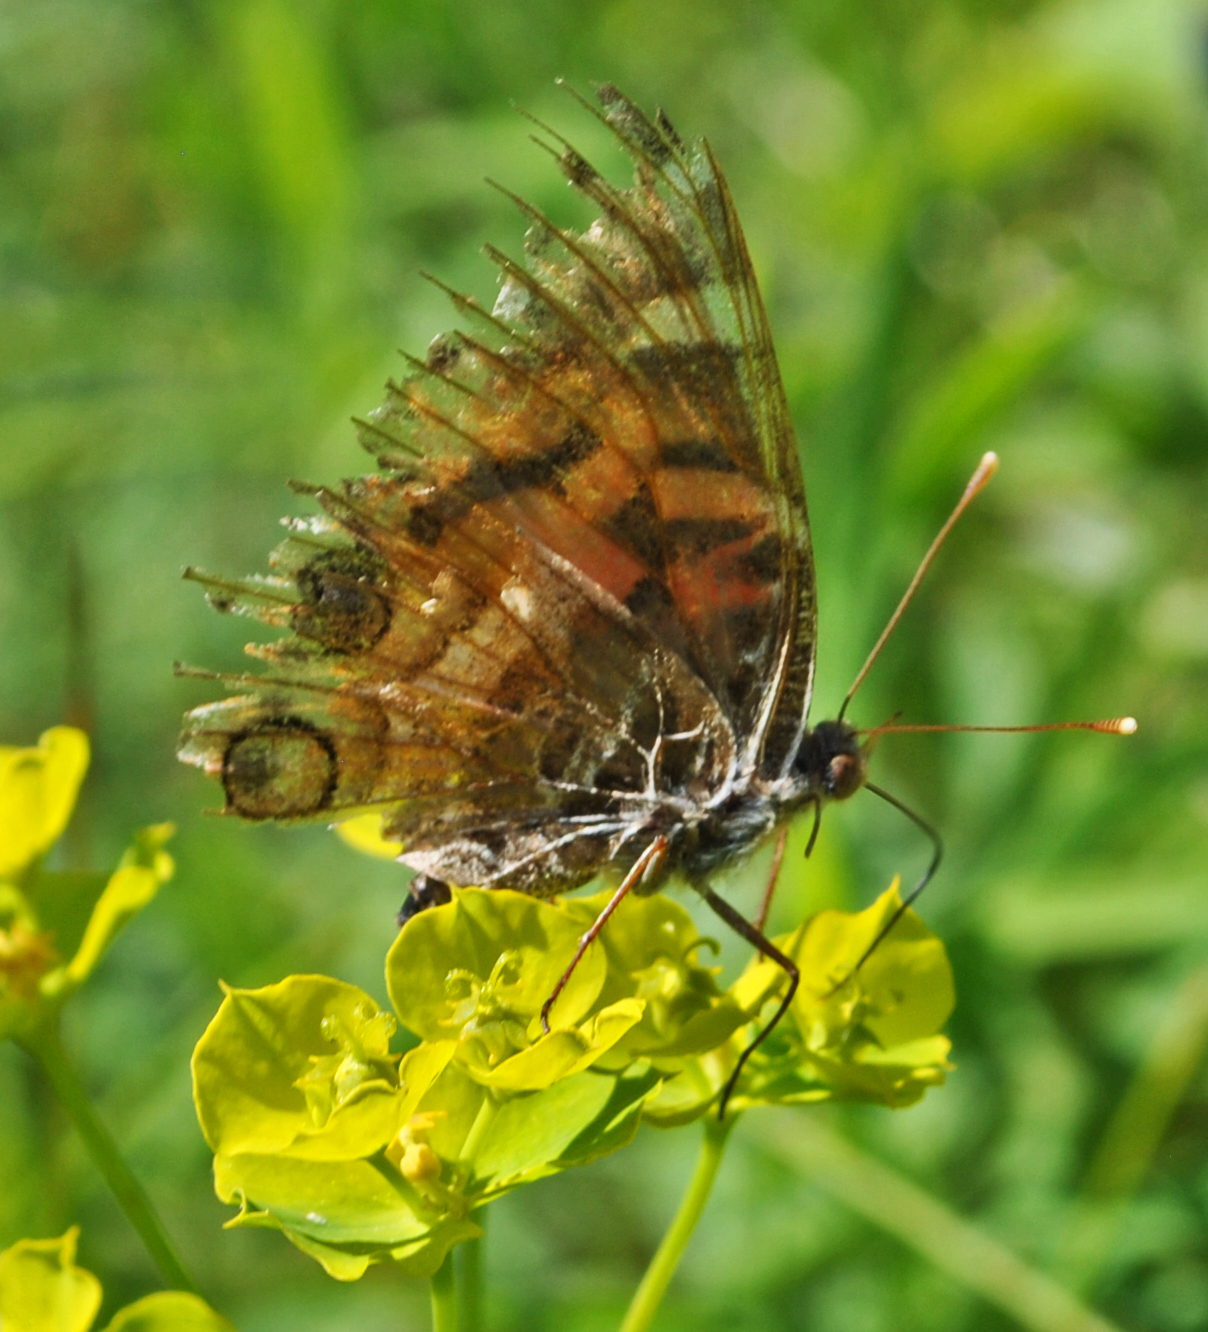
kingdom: Animalia
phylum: Arthropoda
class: Insecta
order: Lepidoptera
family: Nymphalidae
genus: Vanessa
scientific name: Vanessa virginiensis
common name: American lady
